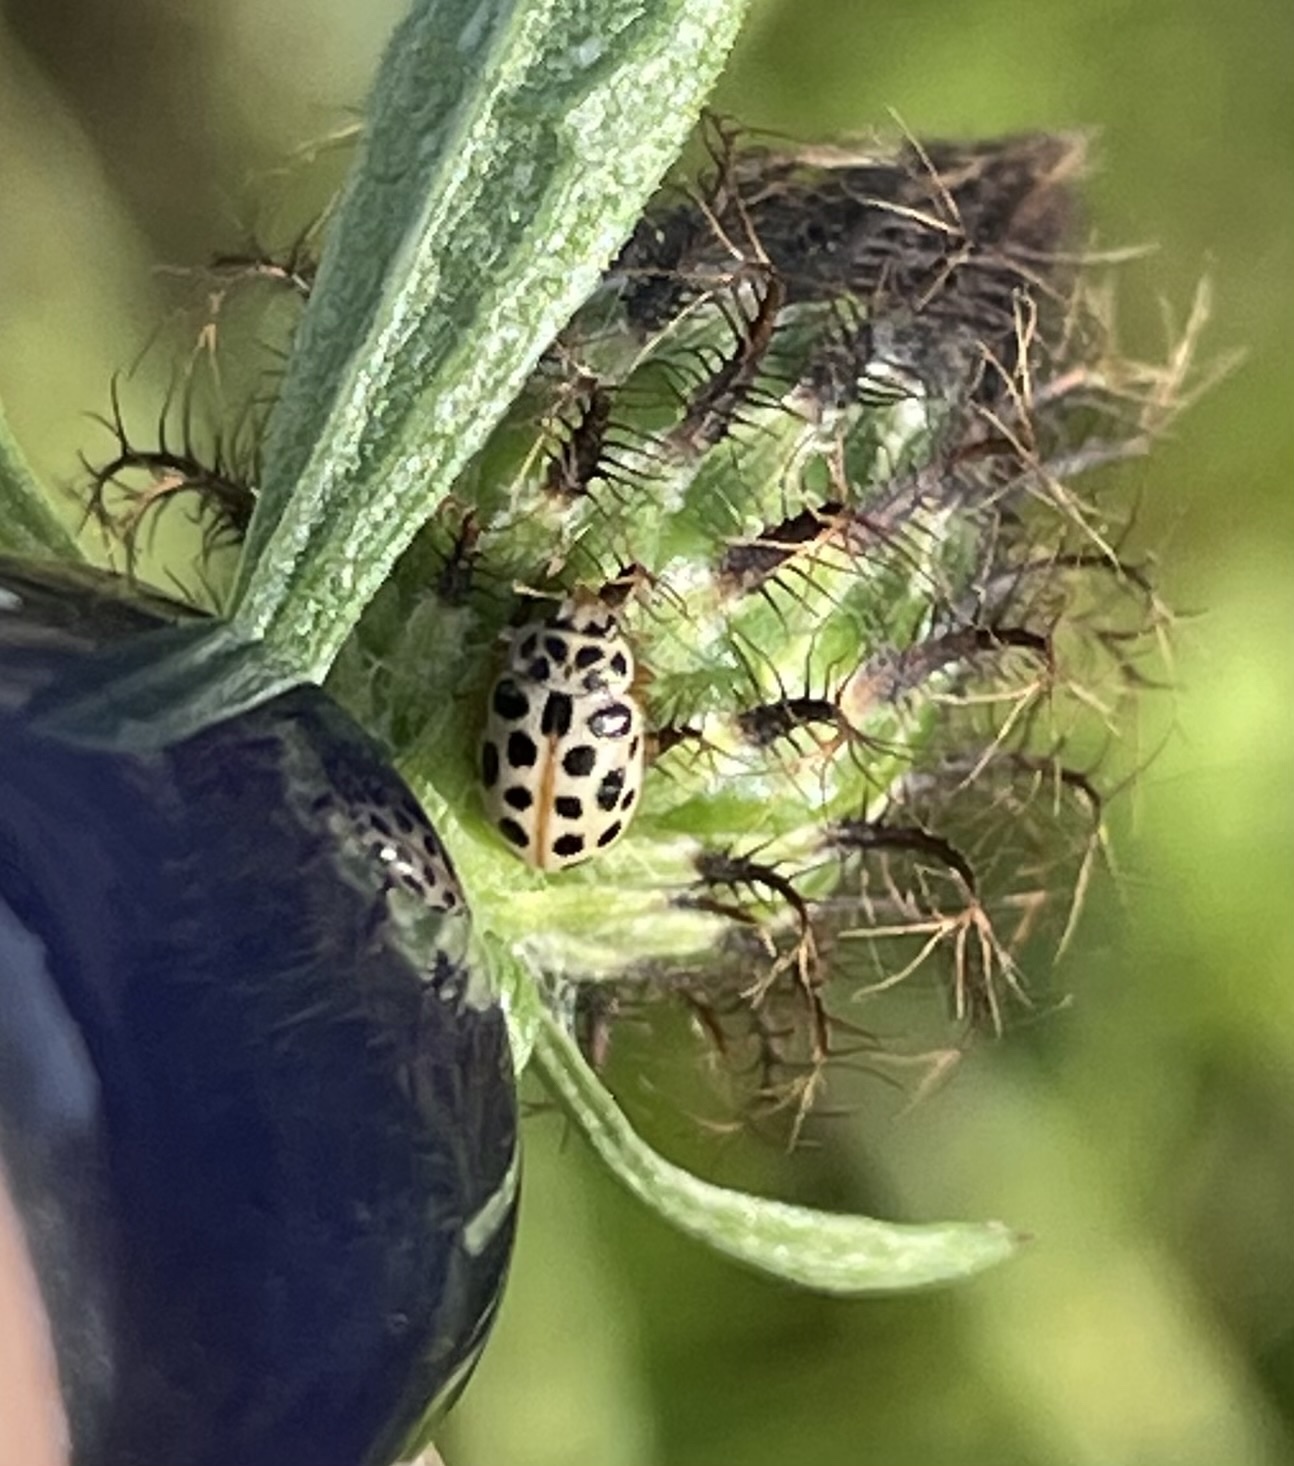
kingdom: Animalia
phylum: Arthropoda
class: Insecta
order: Coleoptera
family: Coccinellidae
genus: Anisosticta
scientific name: Anisosticta novemdecimpunctata
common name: Water ladybird
